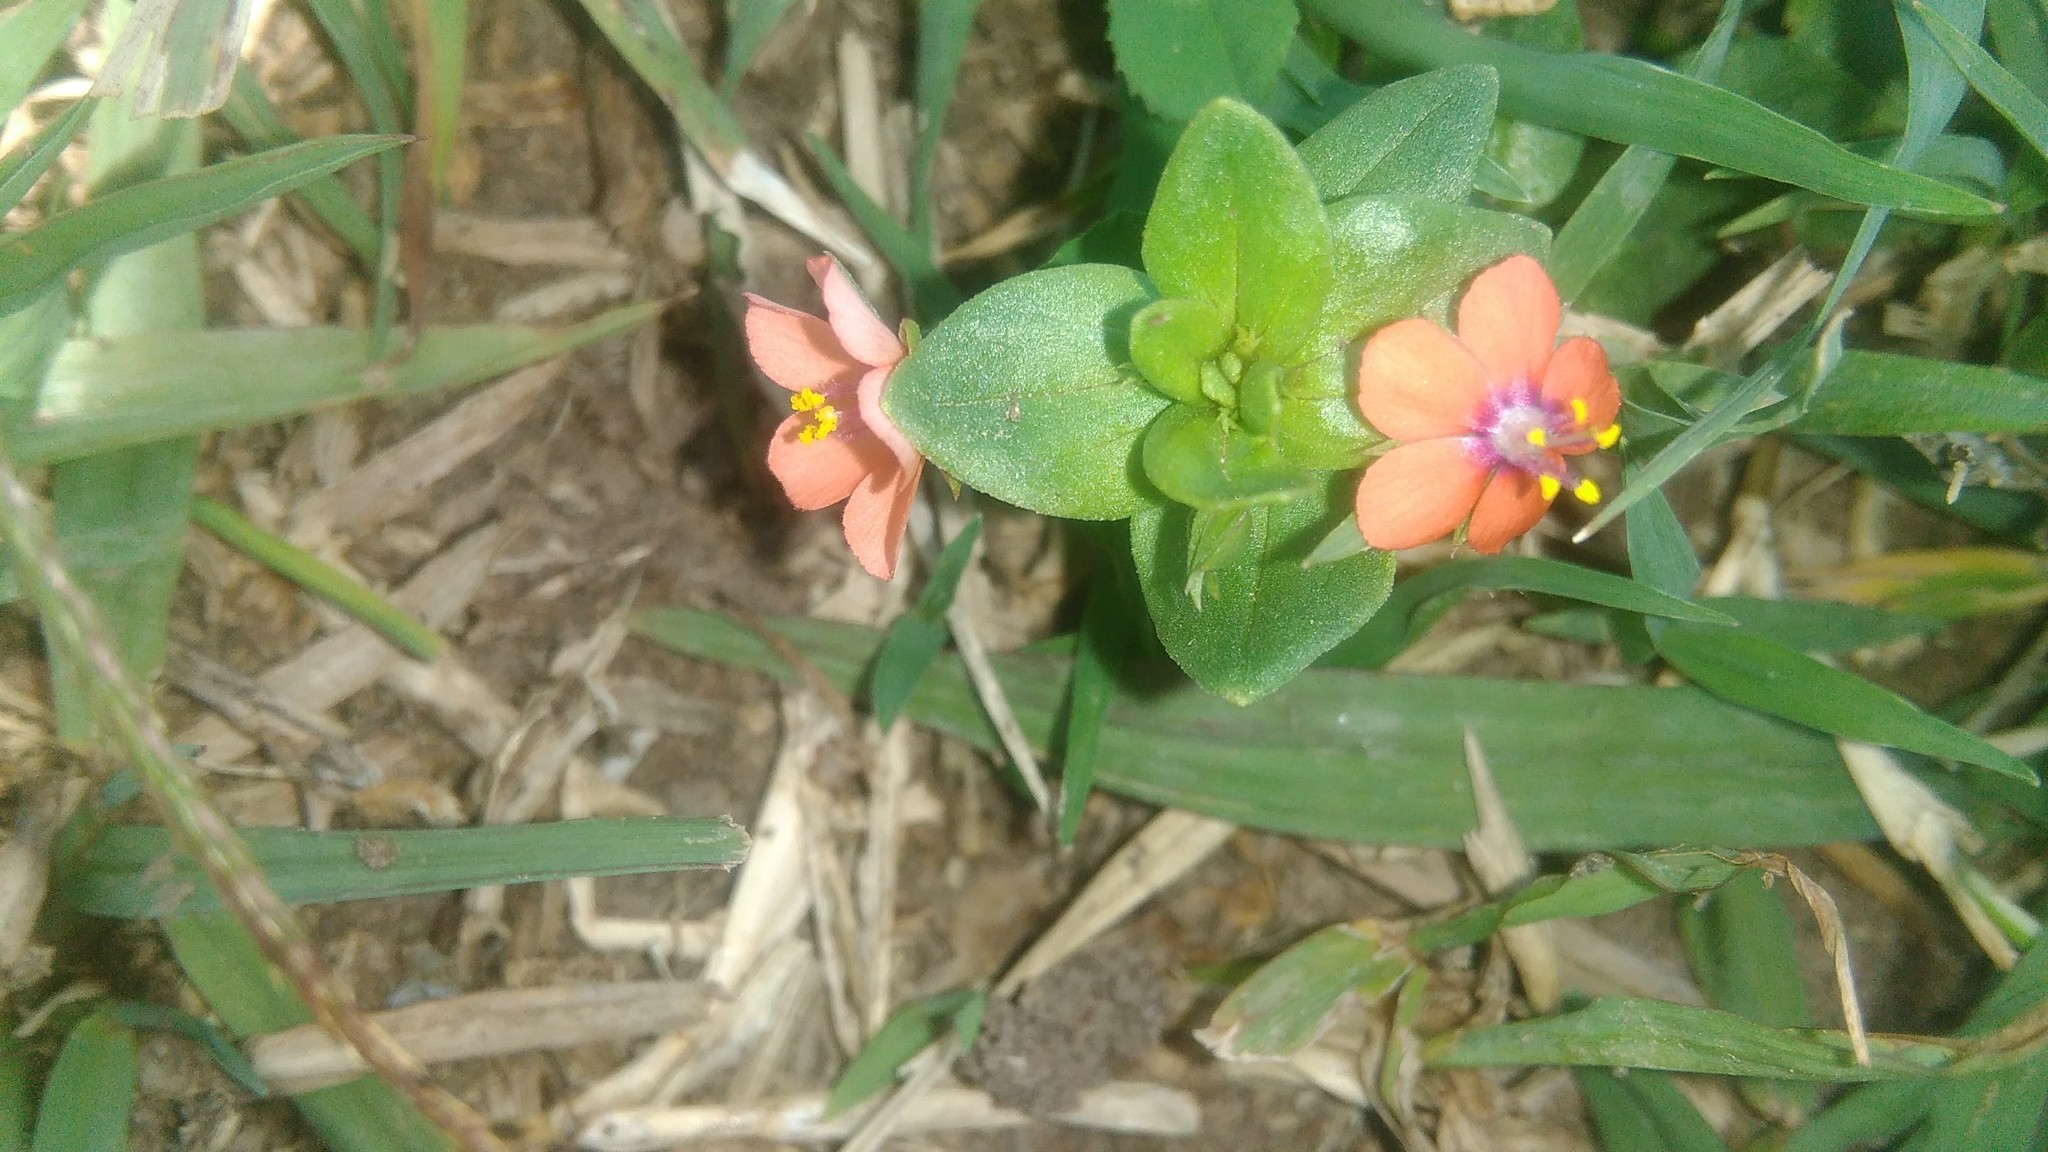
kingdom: Plantae
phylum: Tracheophyta
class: Magnoliopsida
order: Ericales
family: Primulaceae
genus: Lysimachia
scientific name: Lysimachia arvensis
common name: Scarlet pimpernel
